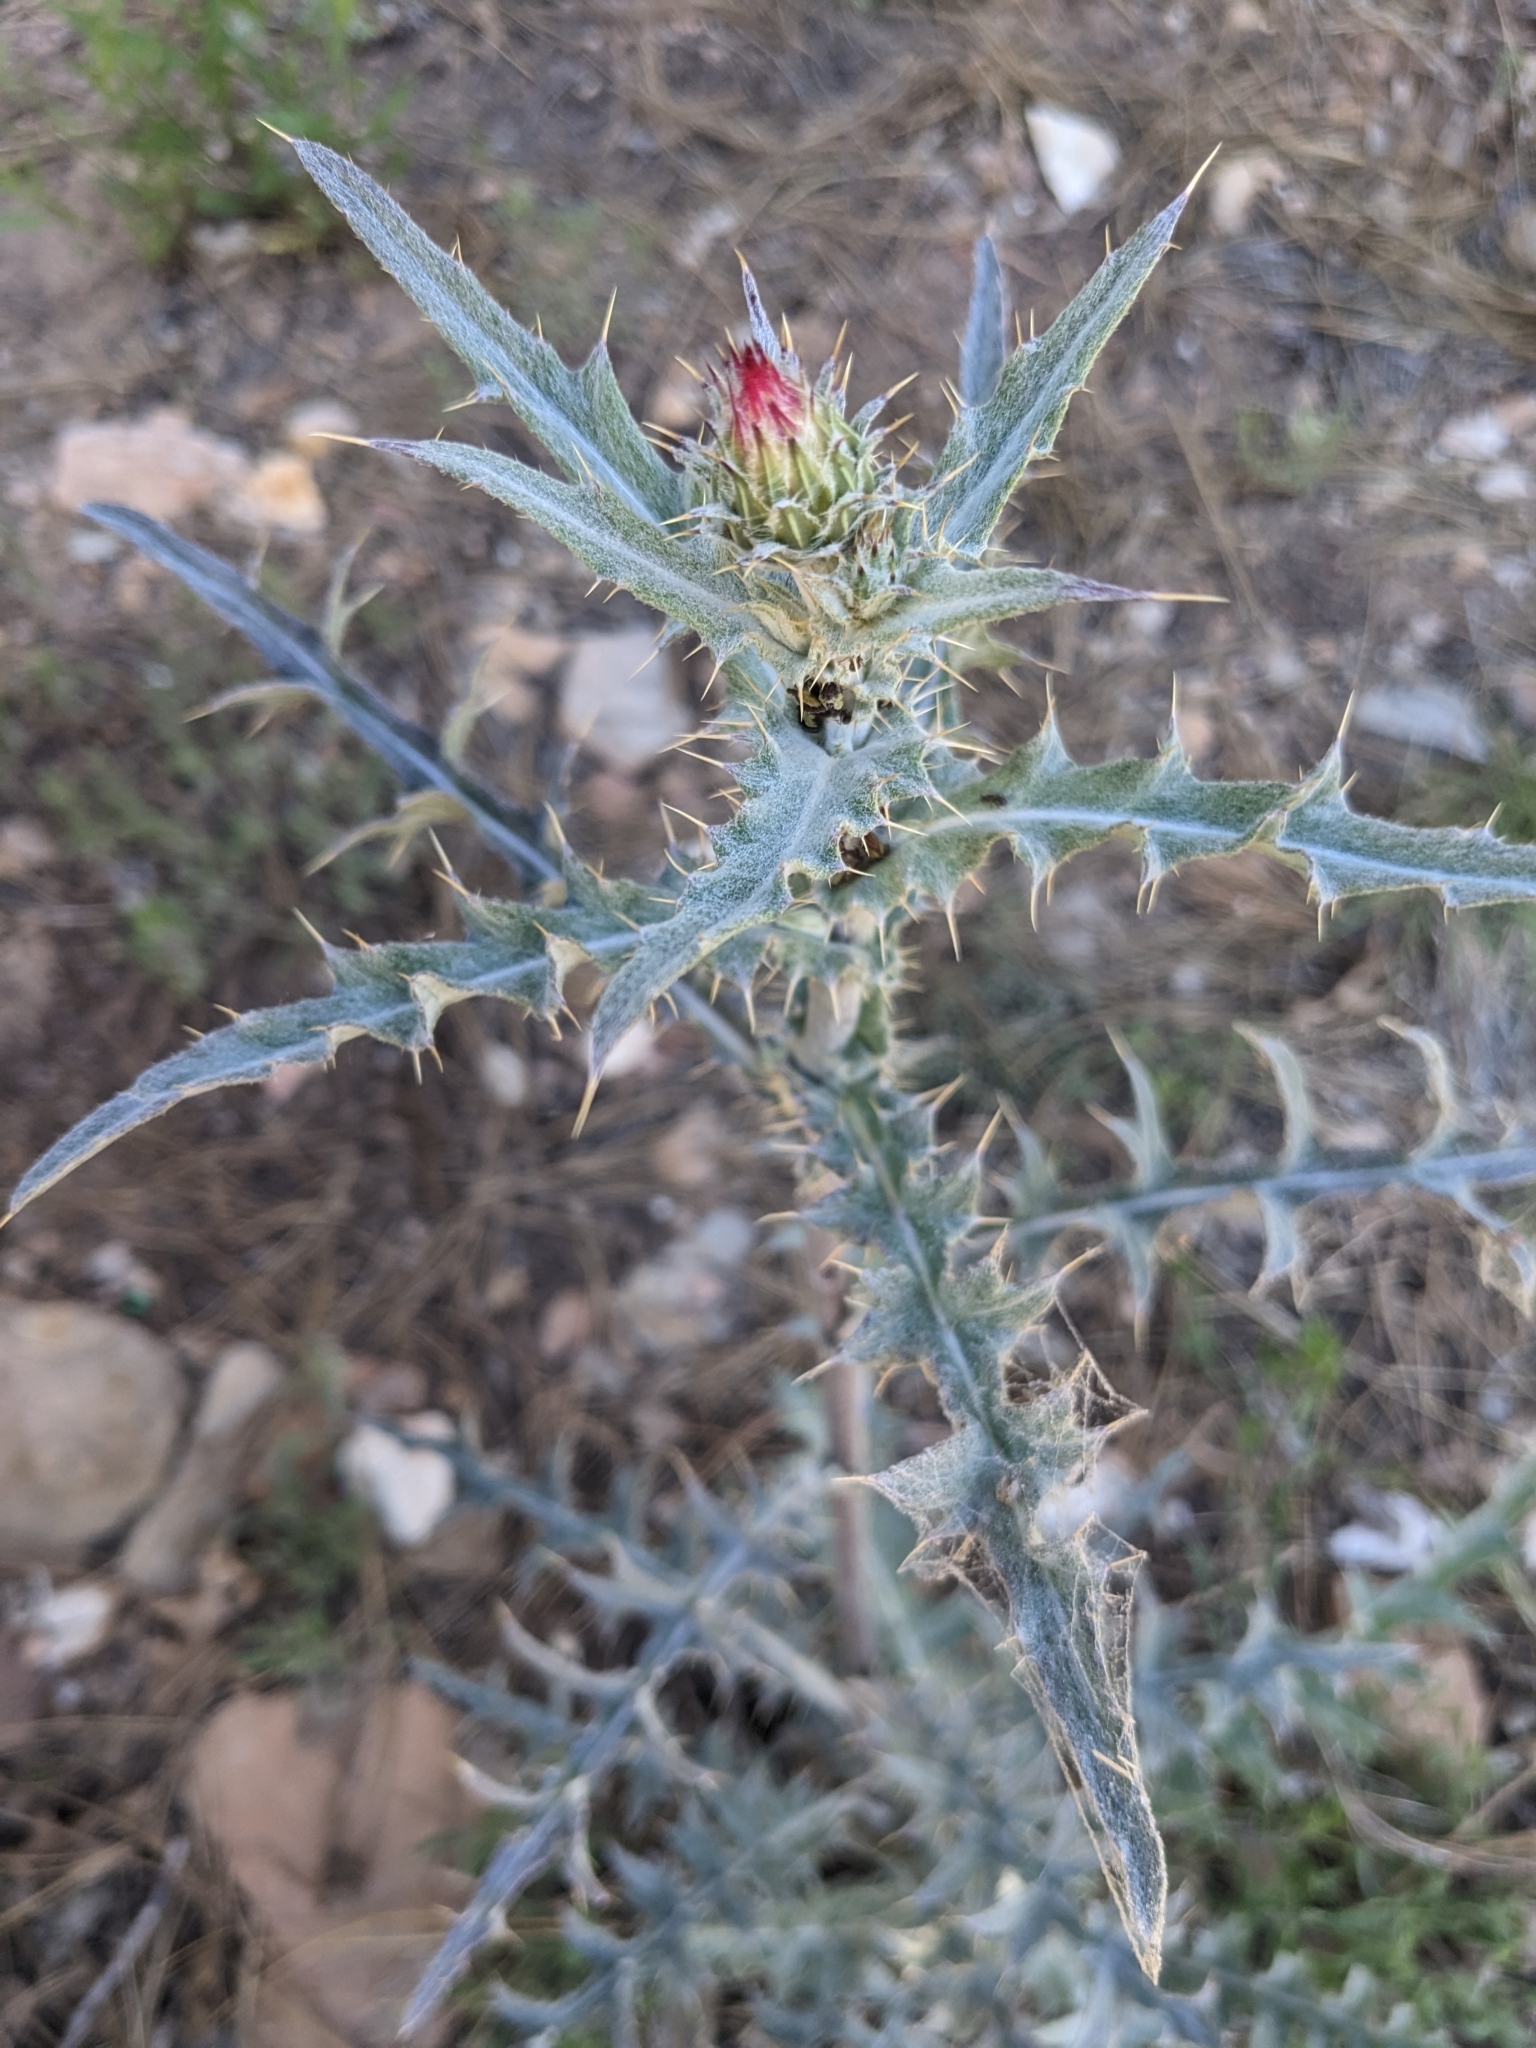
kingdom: Plantae
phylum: Tracheophyta
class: Magnoliopsida
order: Asterales
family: Asteraceae
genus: Cirsium
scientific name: Cirsium arizonicum
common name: Arizona thistle
